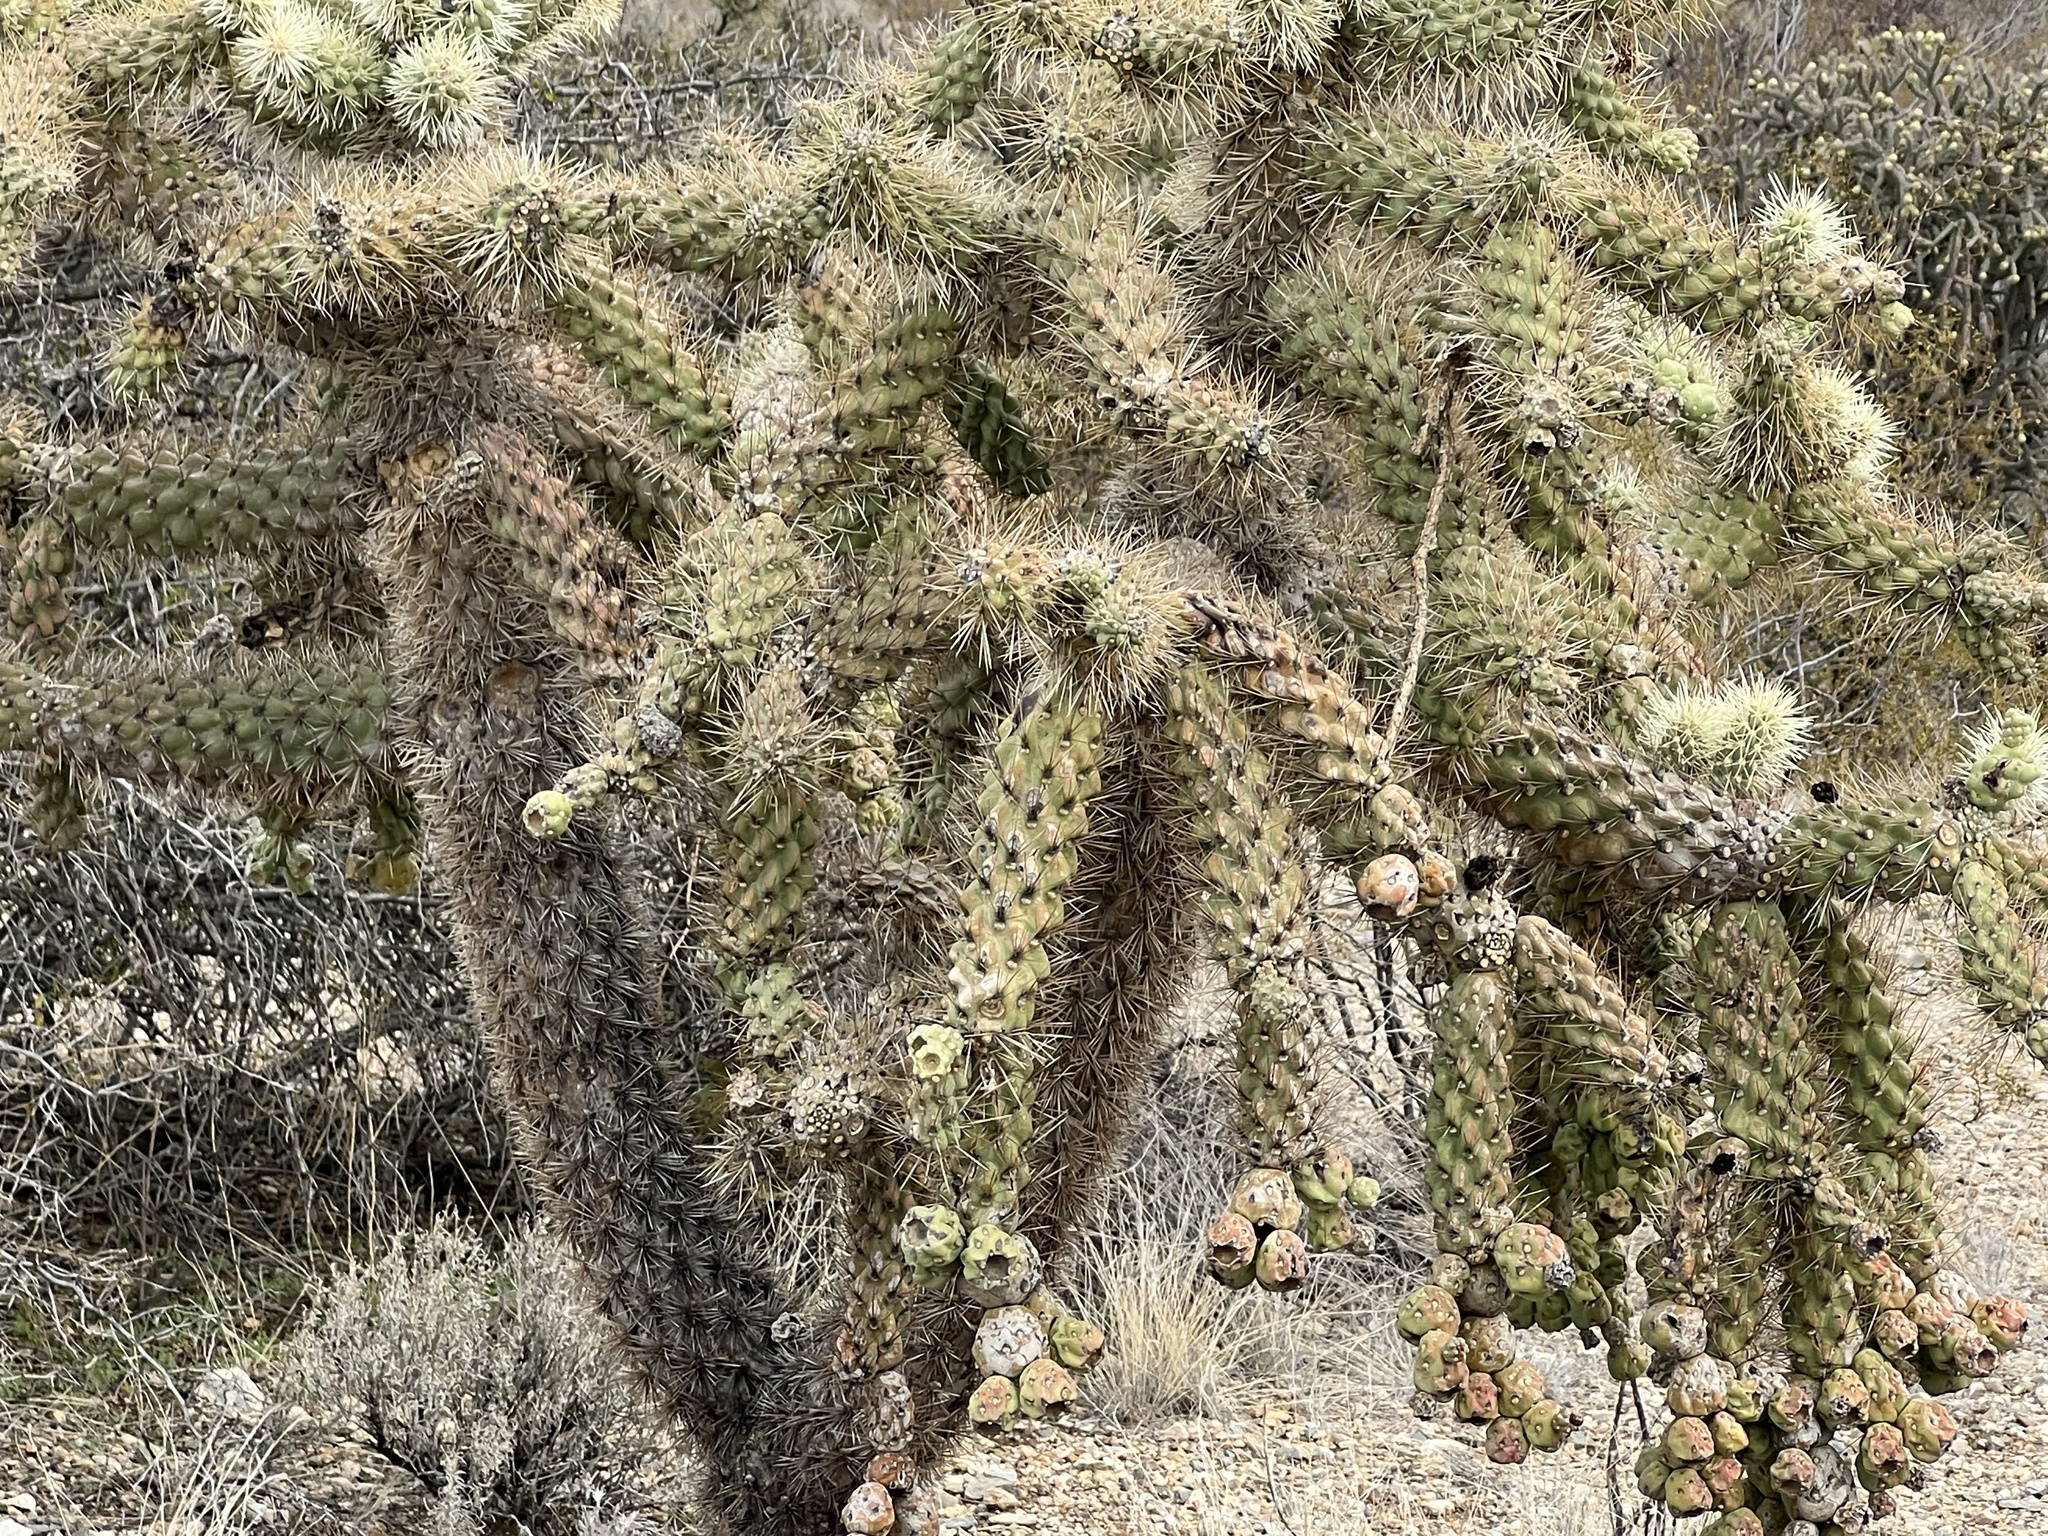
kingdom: Plantae
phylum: Tracheophyta
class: Magnoliopsida
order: Caryophyllales
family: Cactaceae
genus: Cylindropuntia
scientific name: Cylindropuntia fulgida
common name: Jumping cholla
